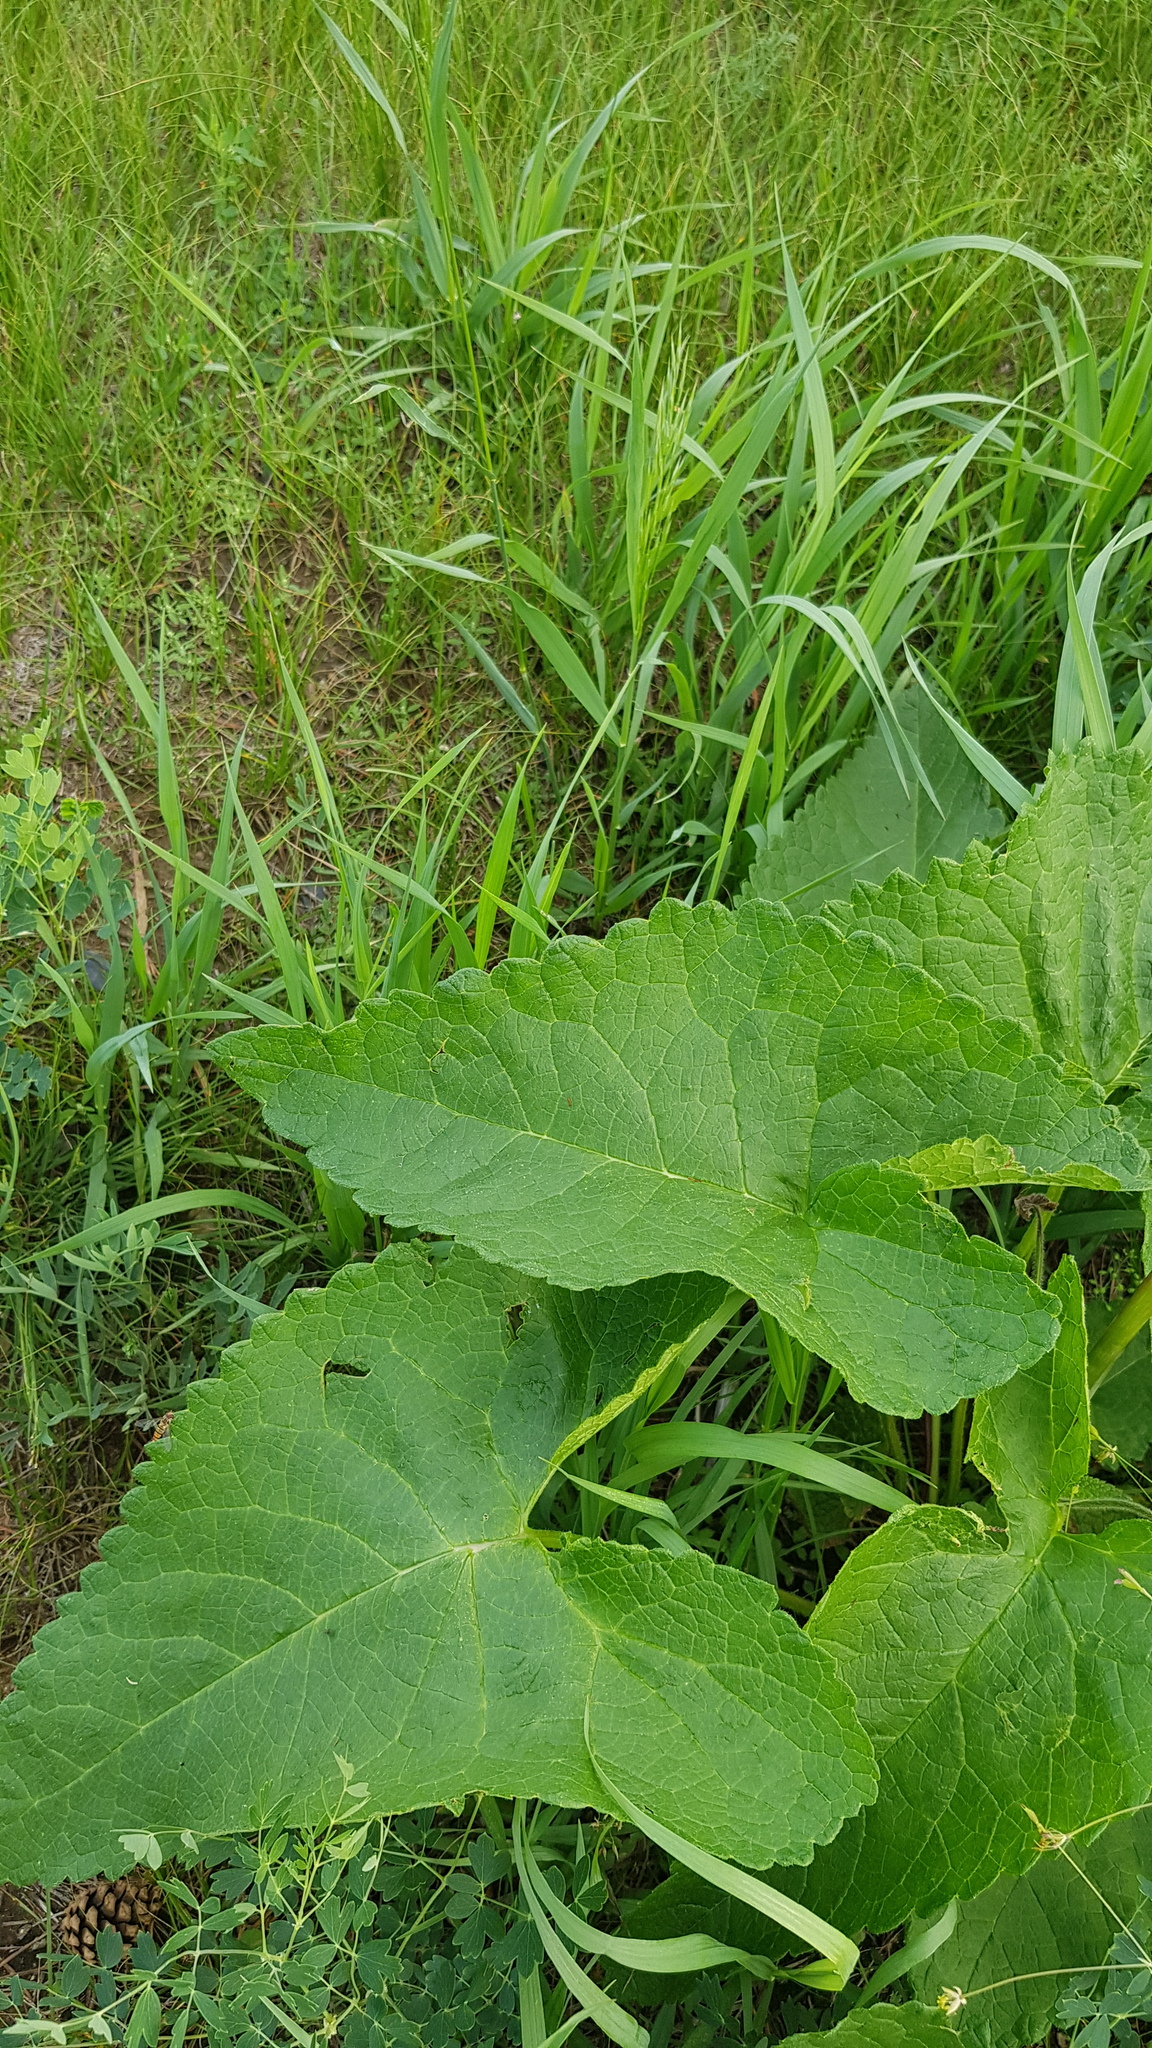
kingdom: Plantae
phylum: Tracheophyta
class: Magnoliopsida
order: Lamiales
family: Lamiaceae
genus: Phlomoides
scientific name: Phlomoides tuberosa
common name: Tuberous jerusalem sage
